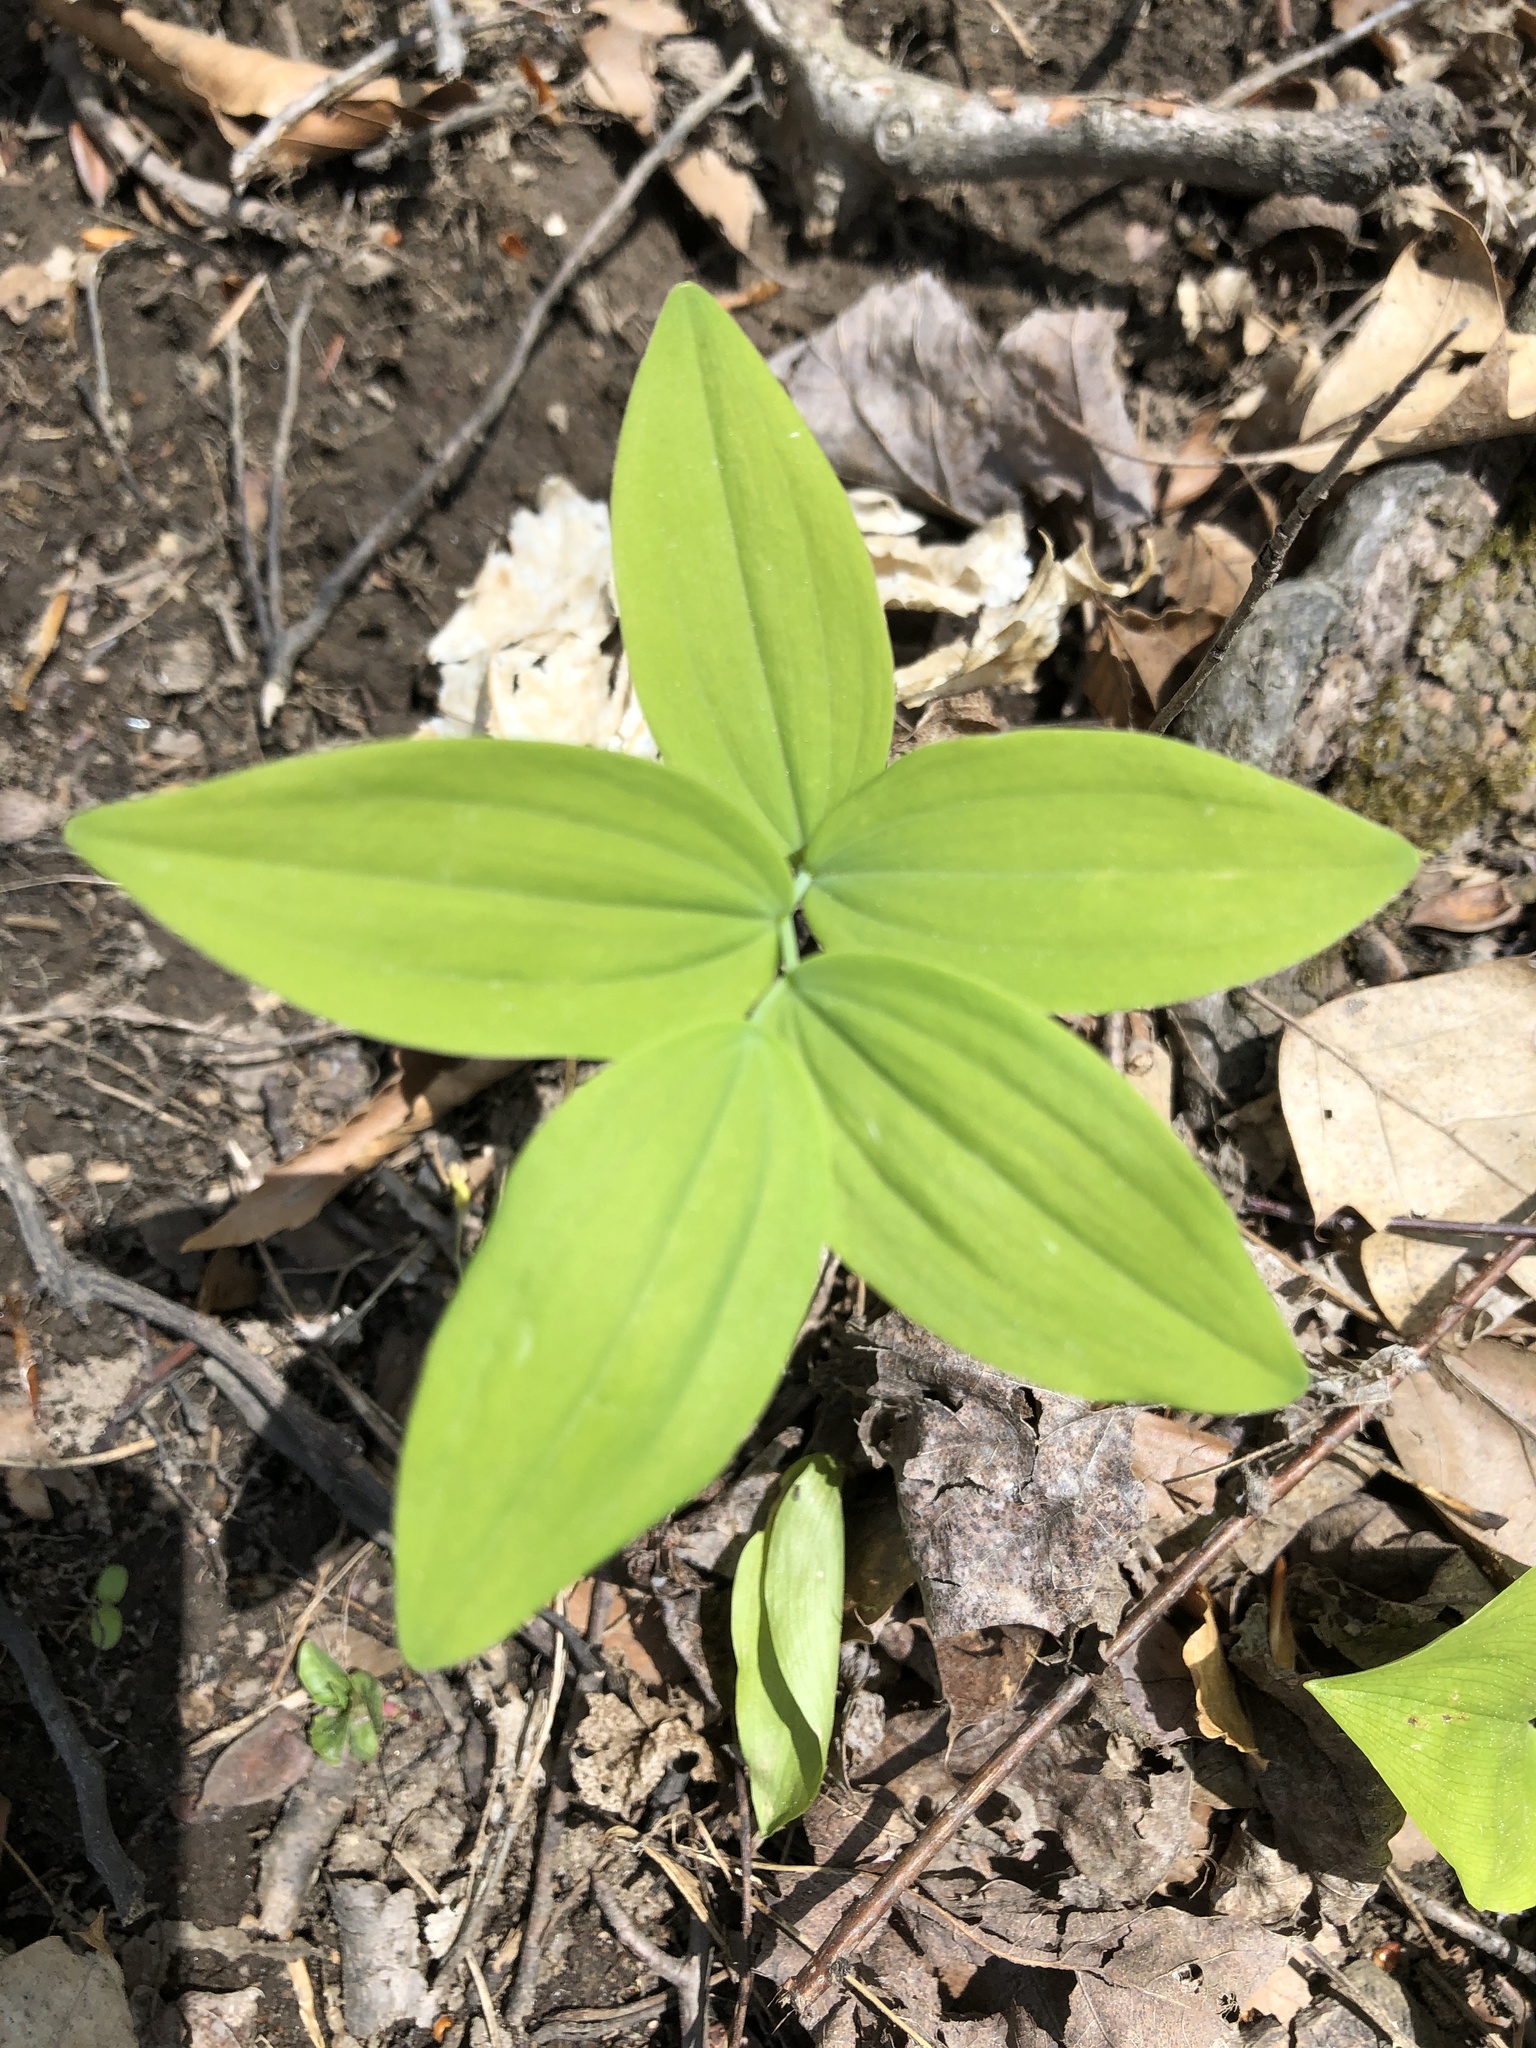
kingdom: Plantae
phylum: Tracheophyta
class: Liliopsida
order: Asparagales
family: Asparagaceae
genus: Polygonatum
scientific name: Polygonatum pubescens
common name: Downy solomon's seal
